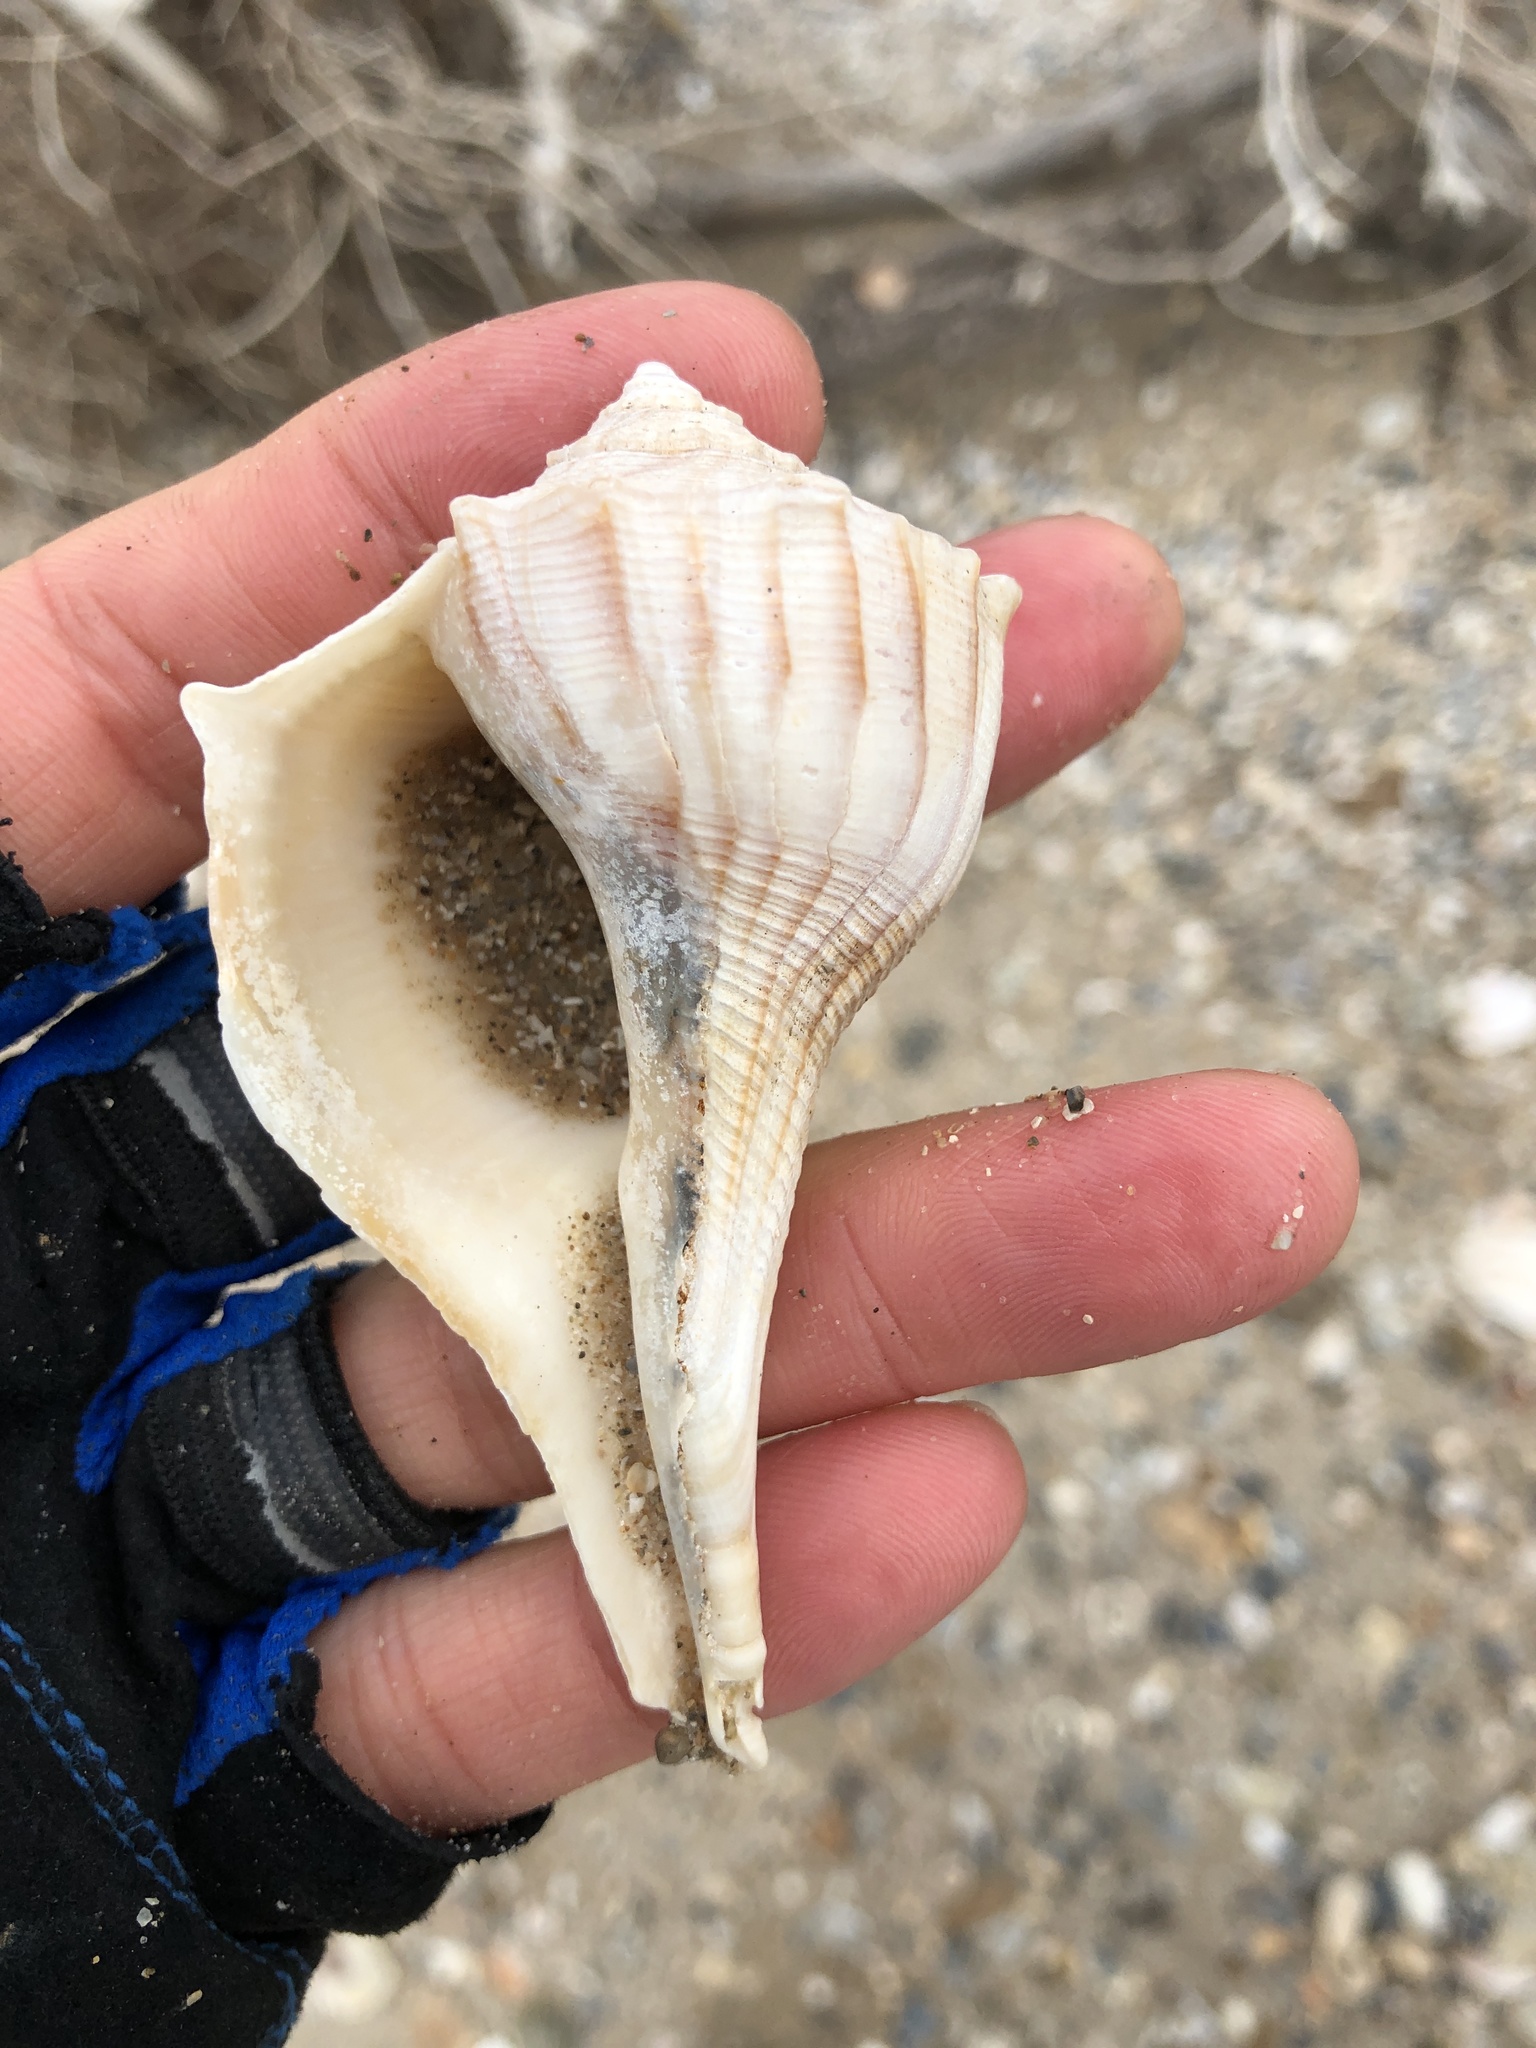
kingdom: Animalia
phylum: Mollusca
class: Gastropoda
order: Neogastropoda
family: Busyconidae
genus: Sinistrofulgur
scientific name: Sinistrofulgur pulleyi
